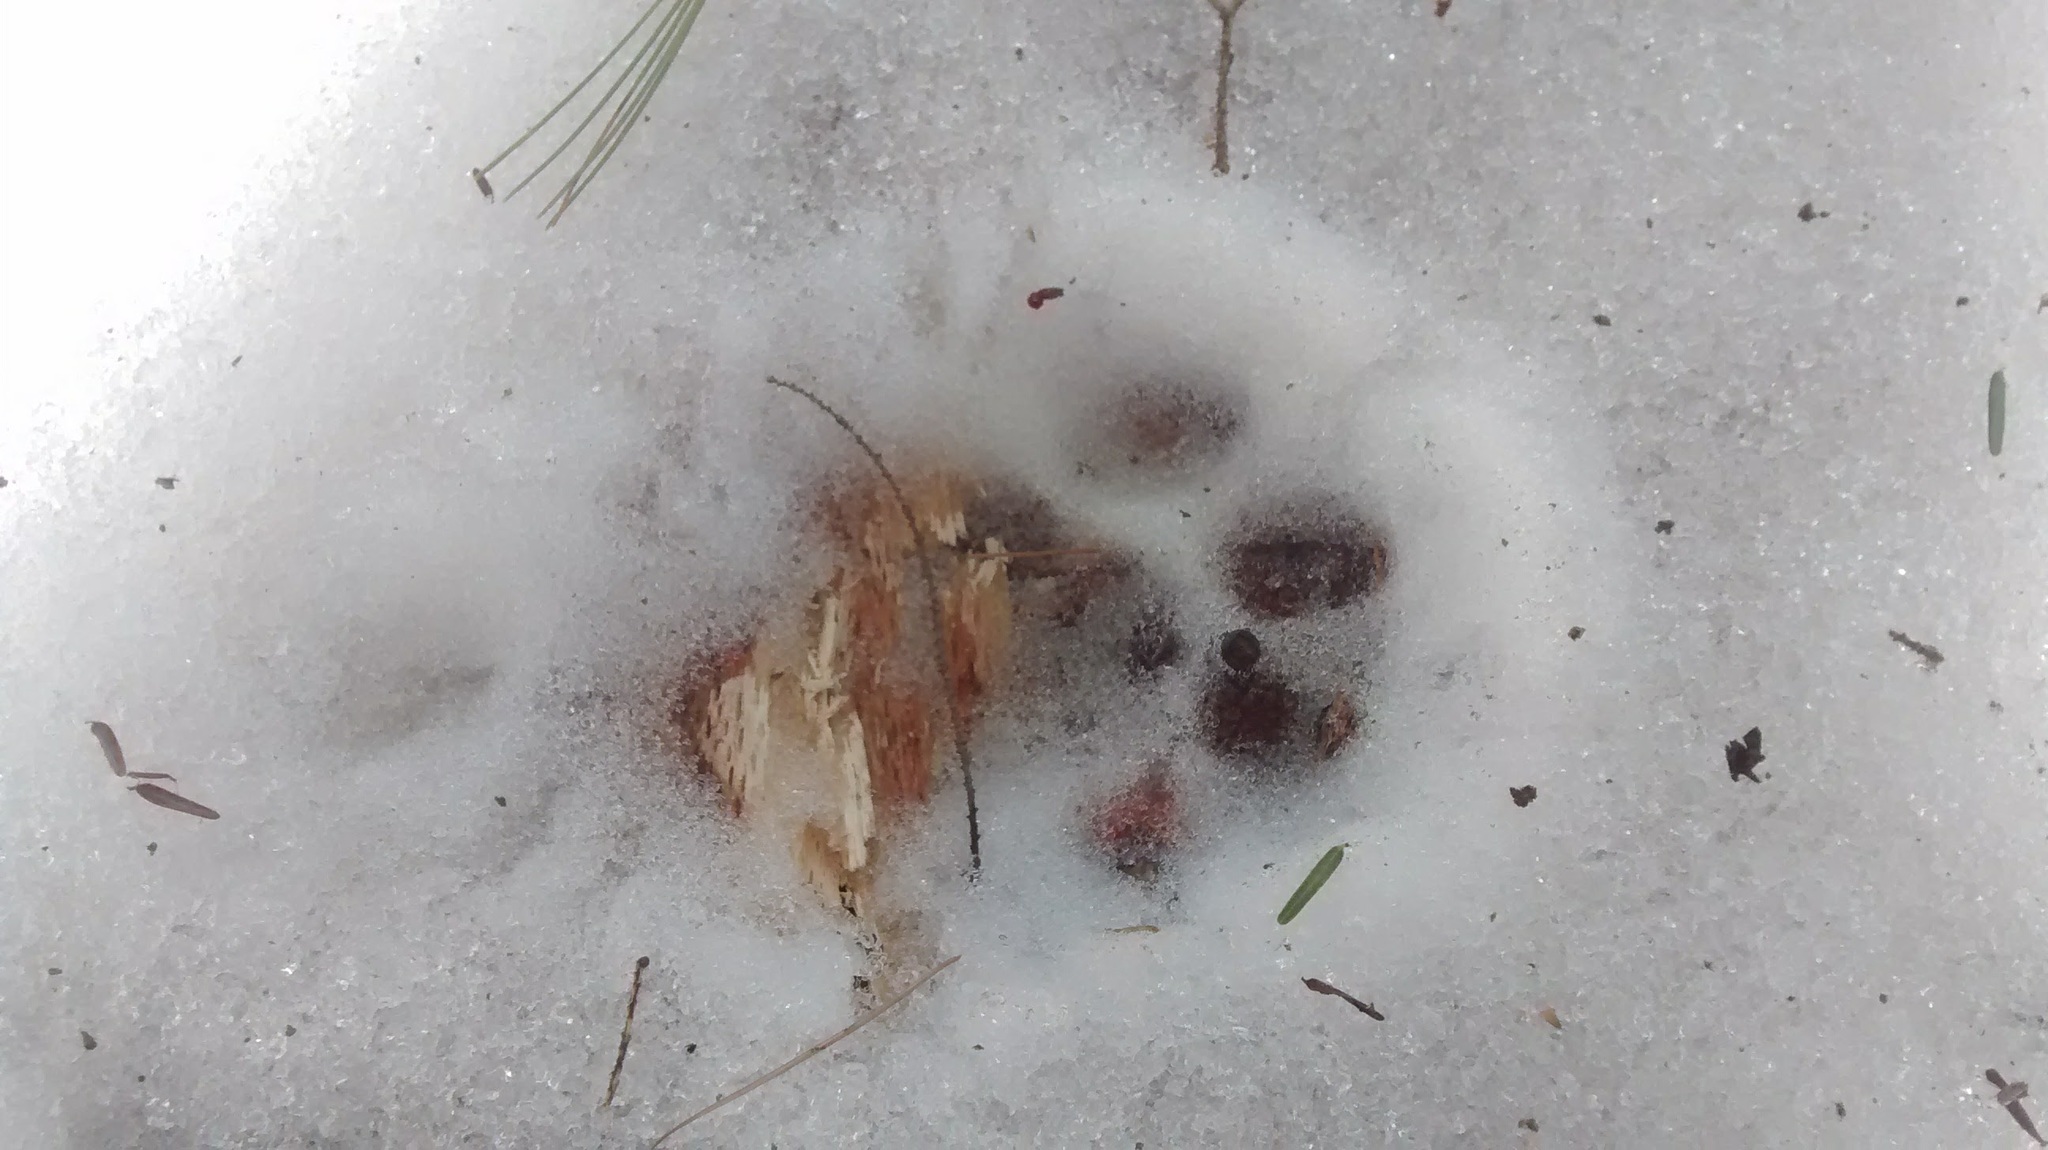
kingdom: Animalia
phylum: Chordata
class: Mammalia
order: Carnivora
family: Felidae
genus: Lynx
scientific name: Lynx rufus
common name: Bobcat
